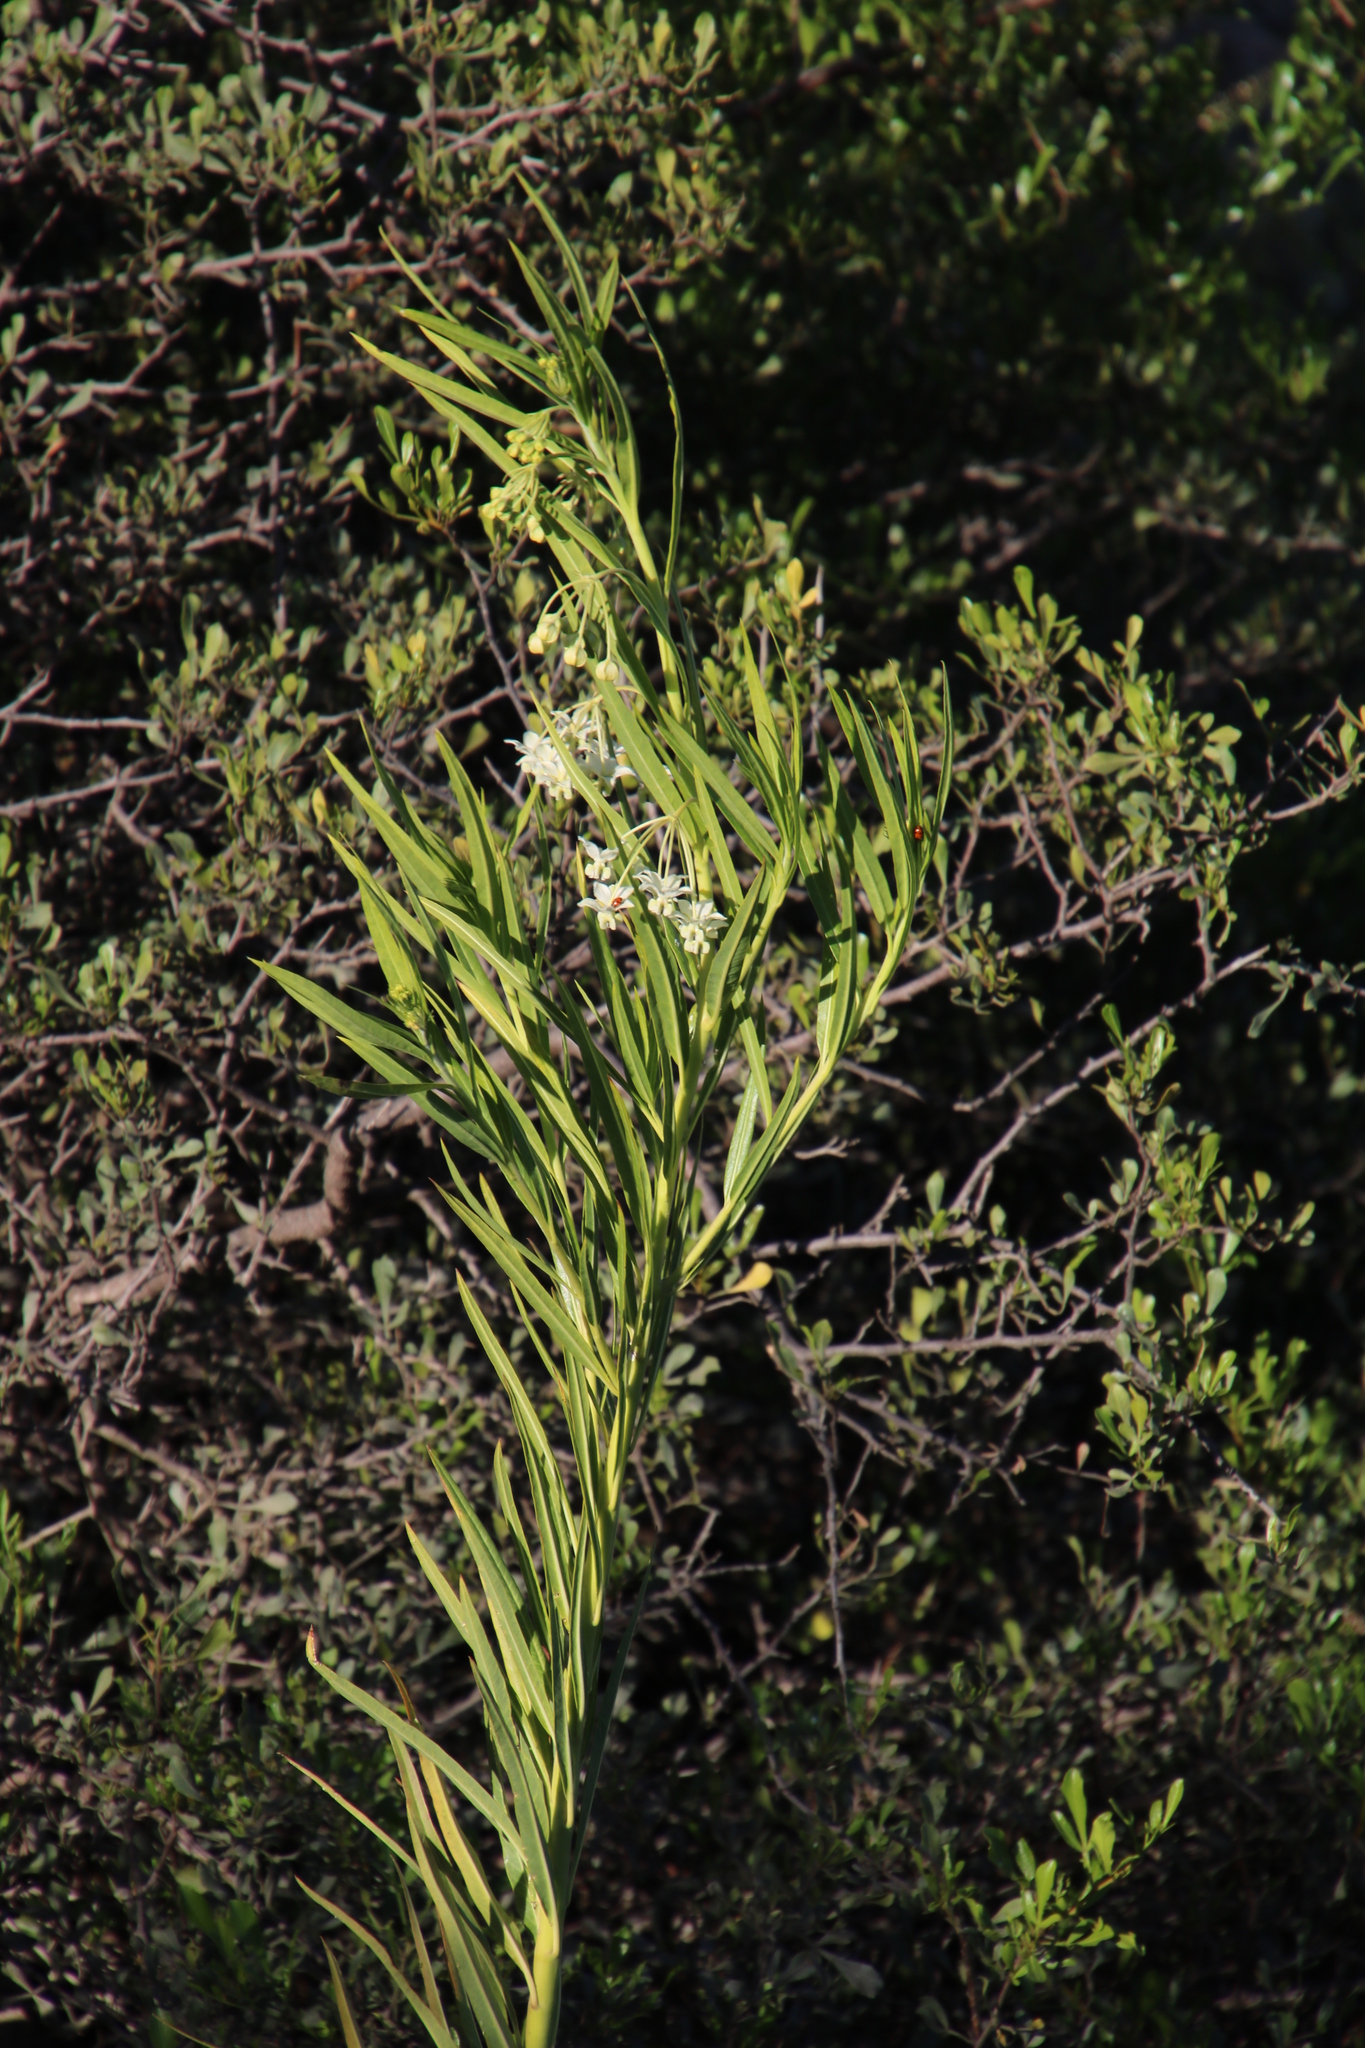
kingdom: Plantae
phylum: Tracheophyta
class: Magnoliopsida
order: Gentianales
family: Apocynaceae
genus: Gomphocarpus
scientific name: Gomphocarpus fruticosus
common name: Milkweed
